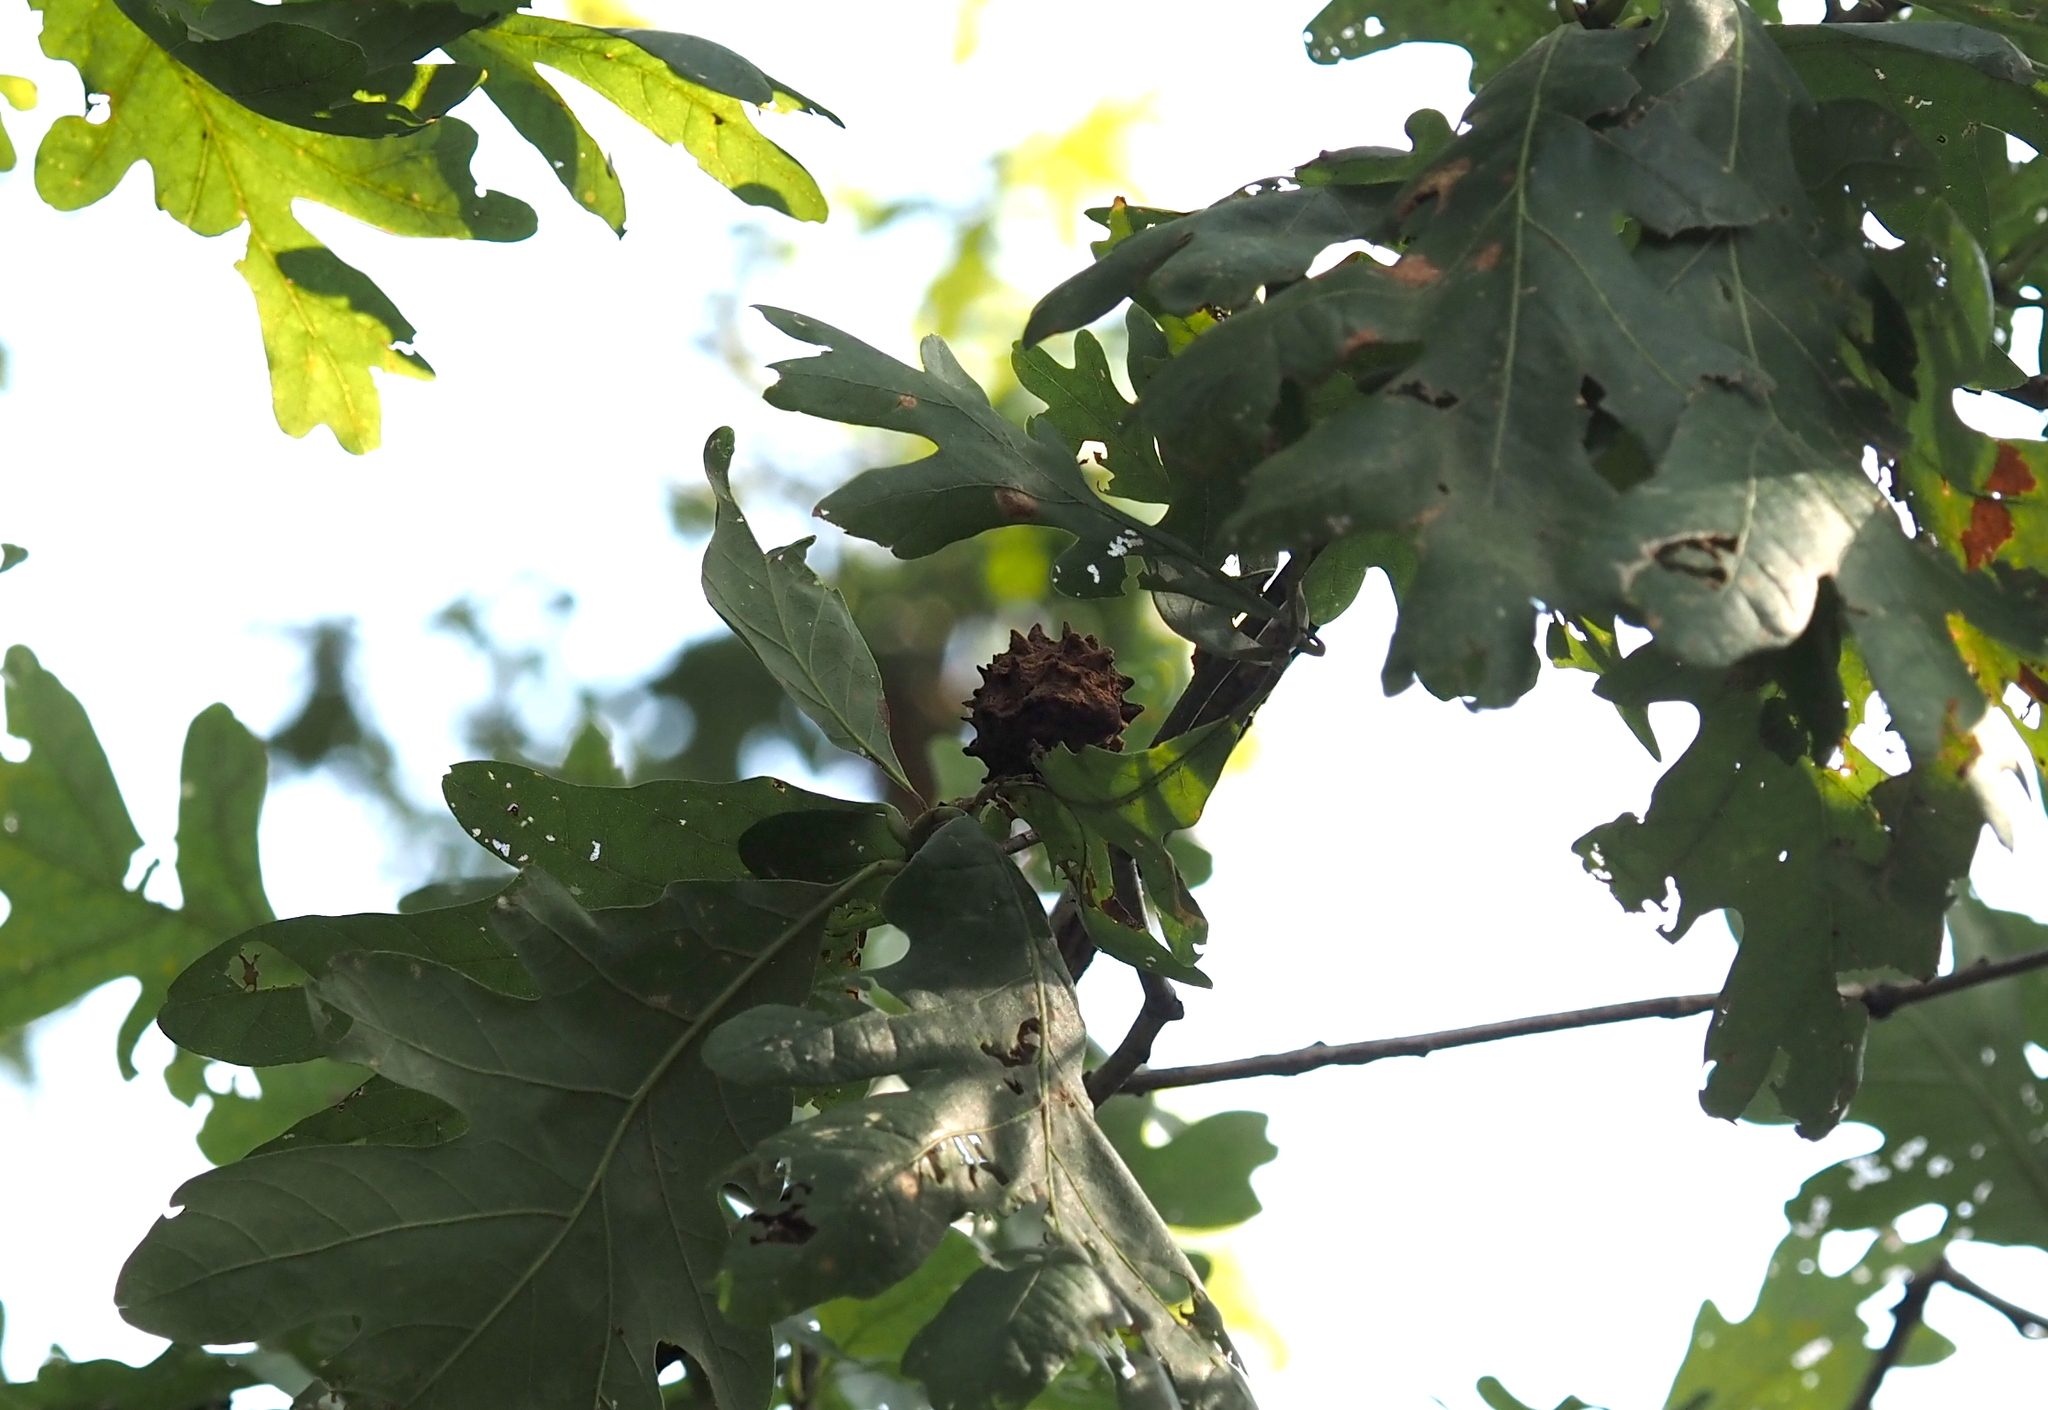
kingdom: Animalia
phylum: Arthropoda
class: Insecta
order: Hymenoptera
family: Cynipidae
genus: Callirhytis
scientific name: Callirhytis
